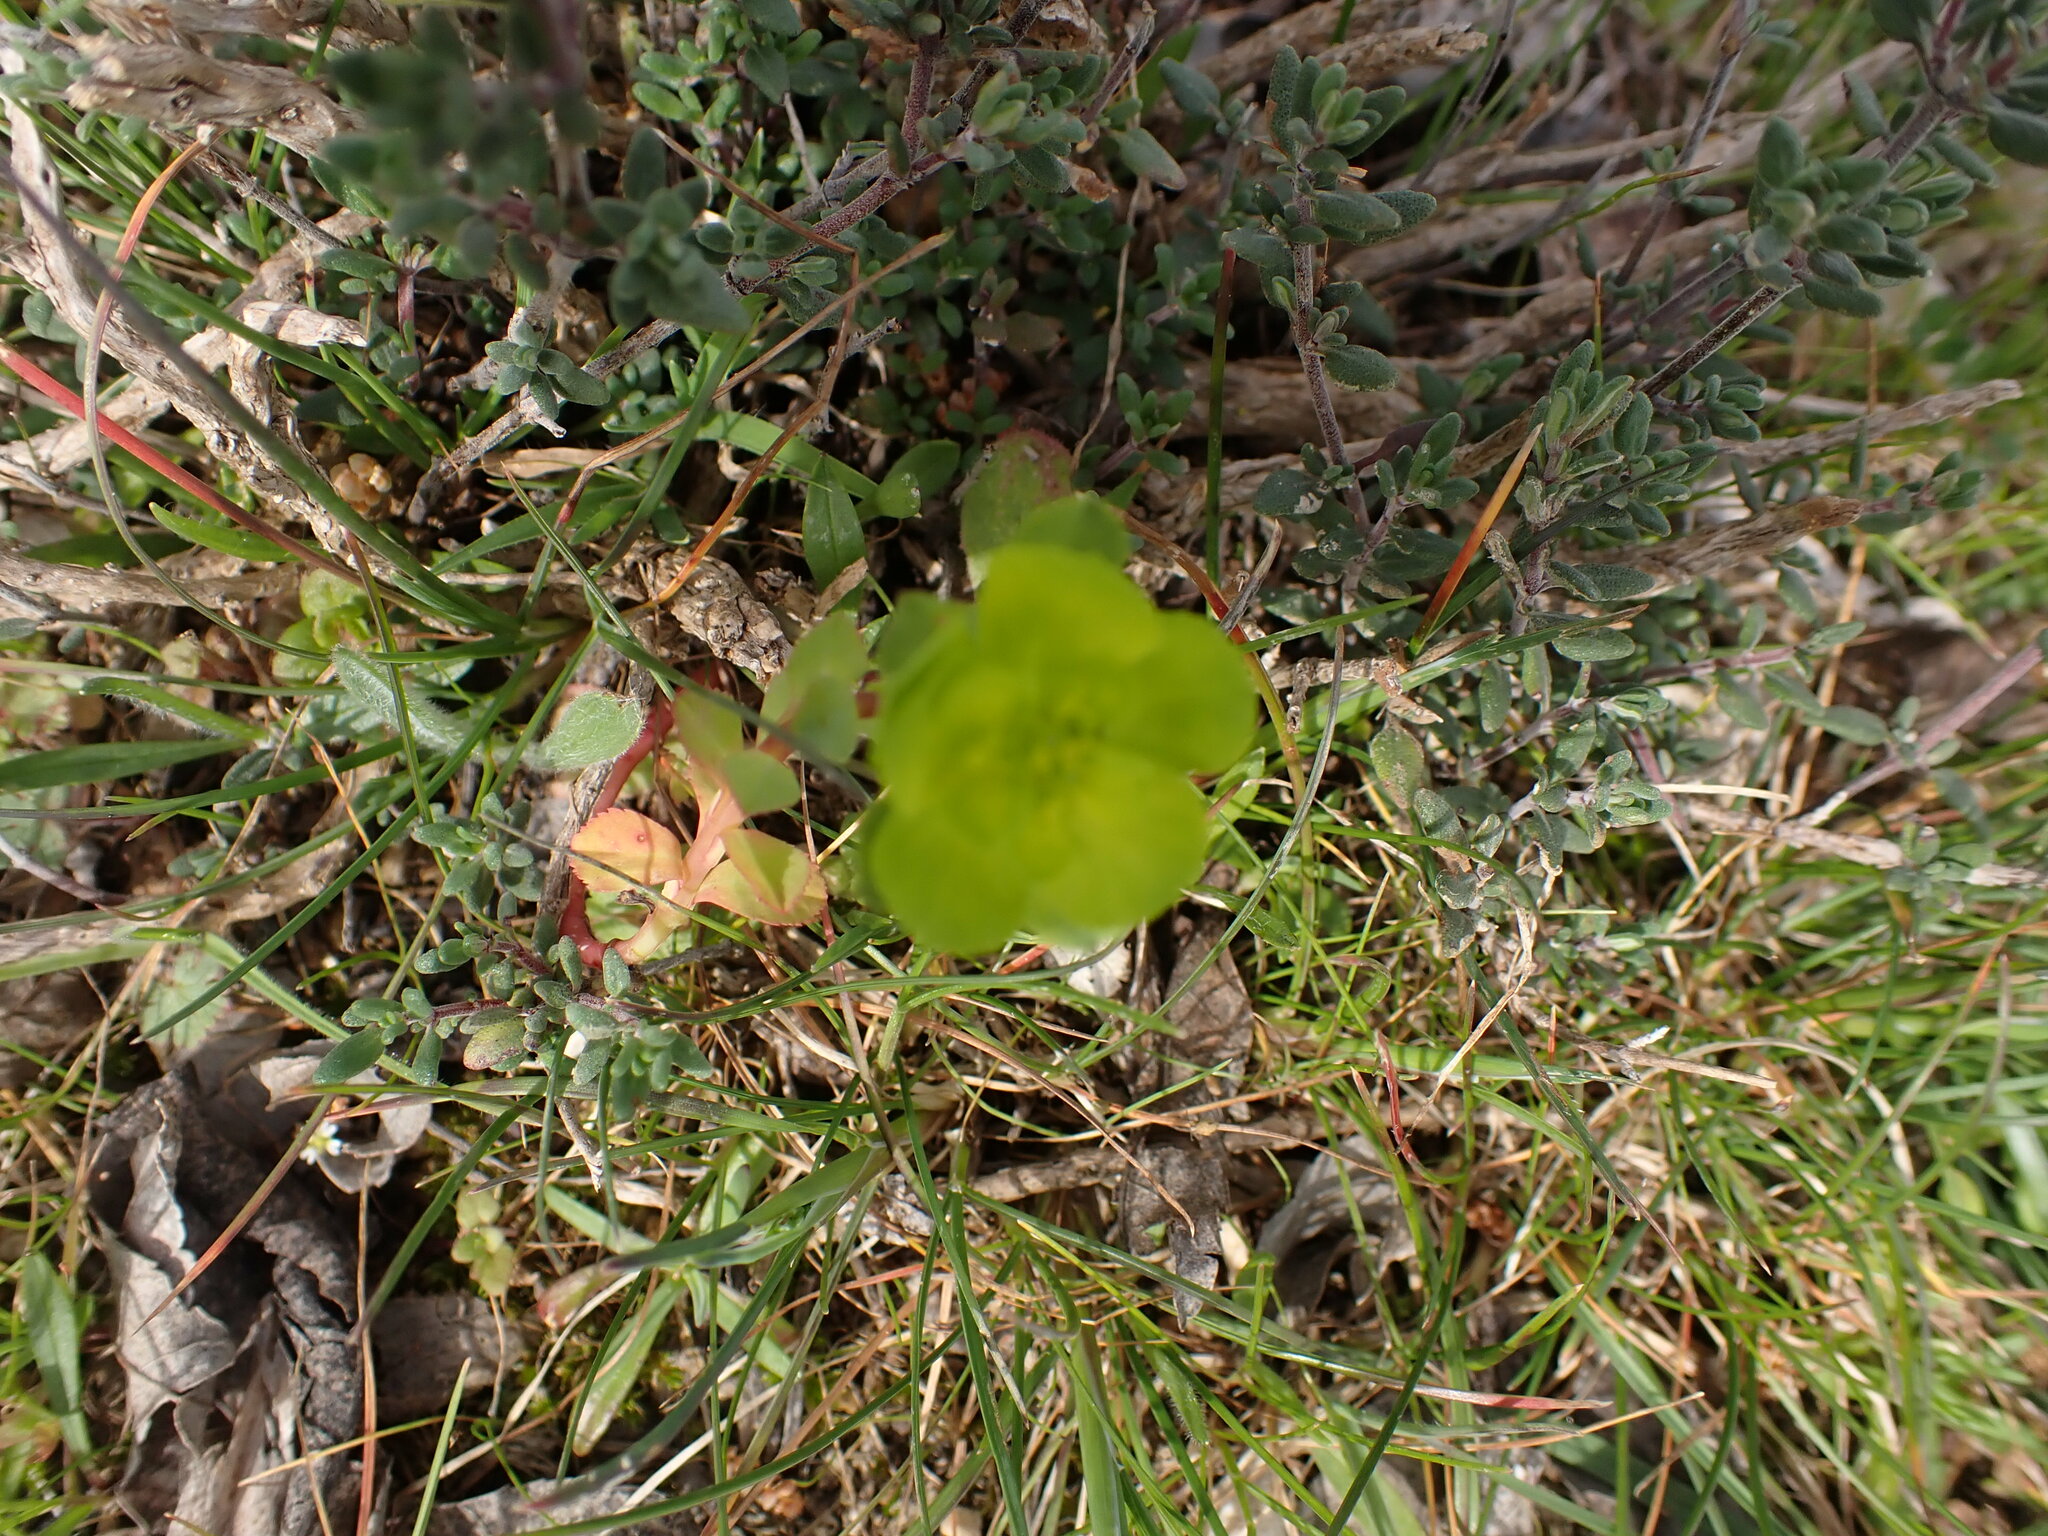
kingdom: Plantae
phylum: Tracheophyta
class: Magnoliopsida
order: Malpighiales
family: Euphorbiaceae
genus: Euphorbia
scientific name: Euphorbia helioscopia
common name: Sun spurge
